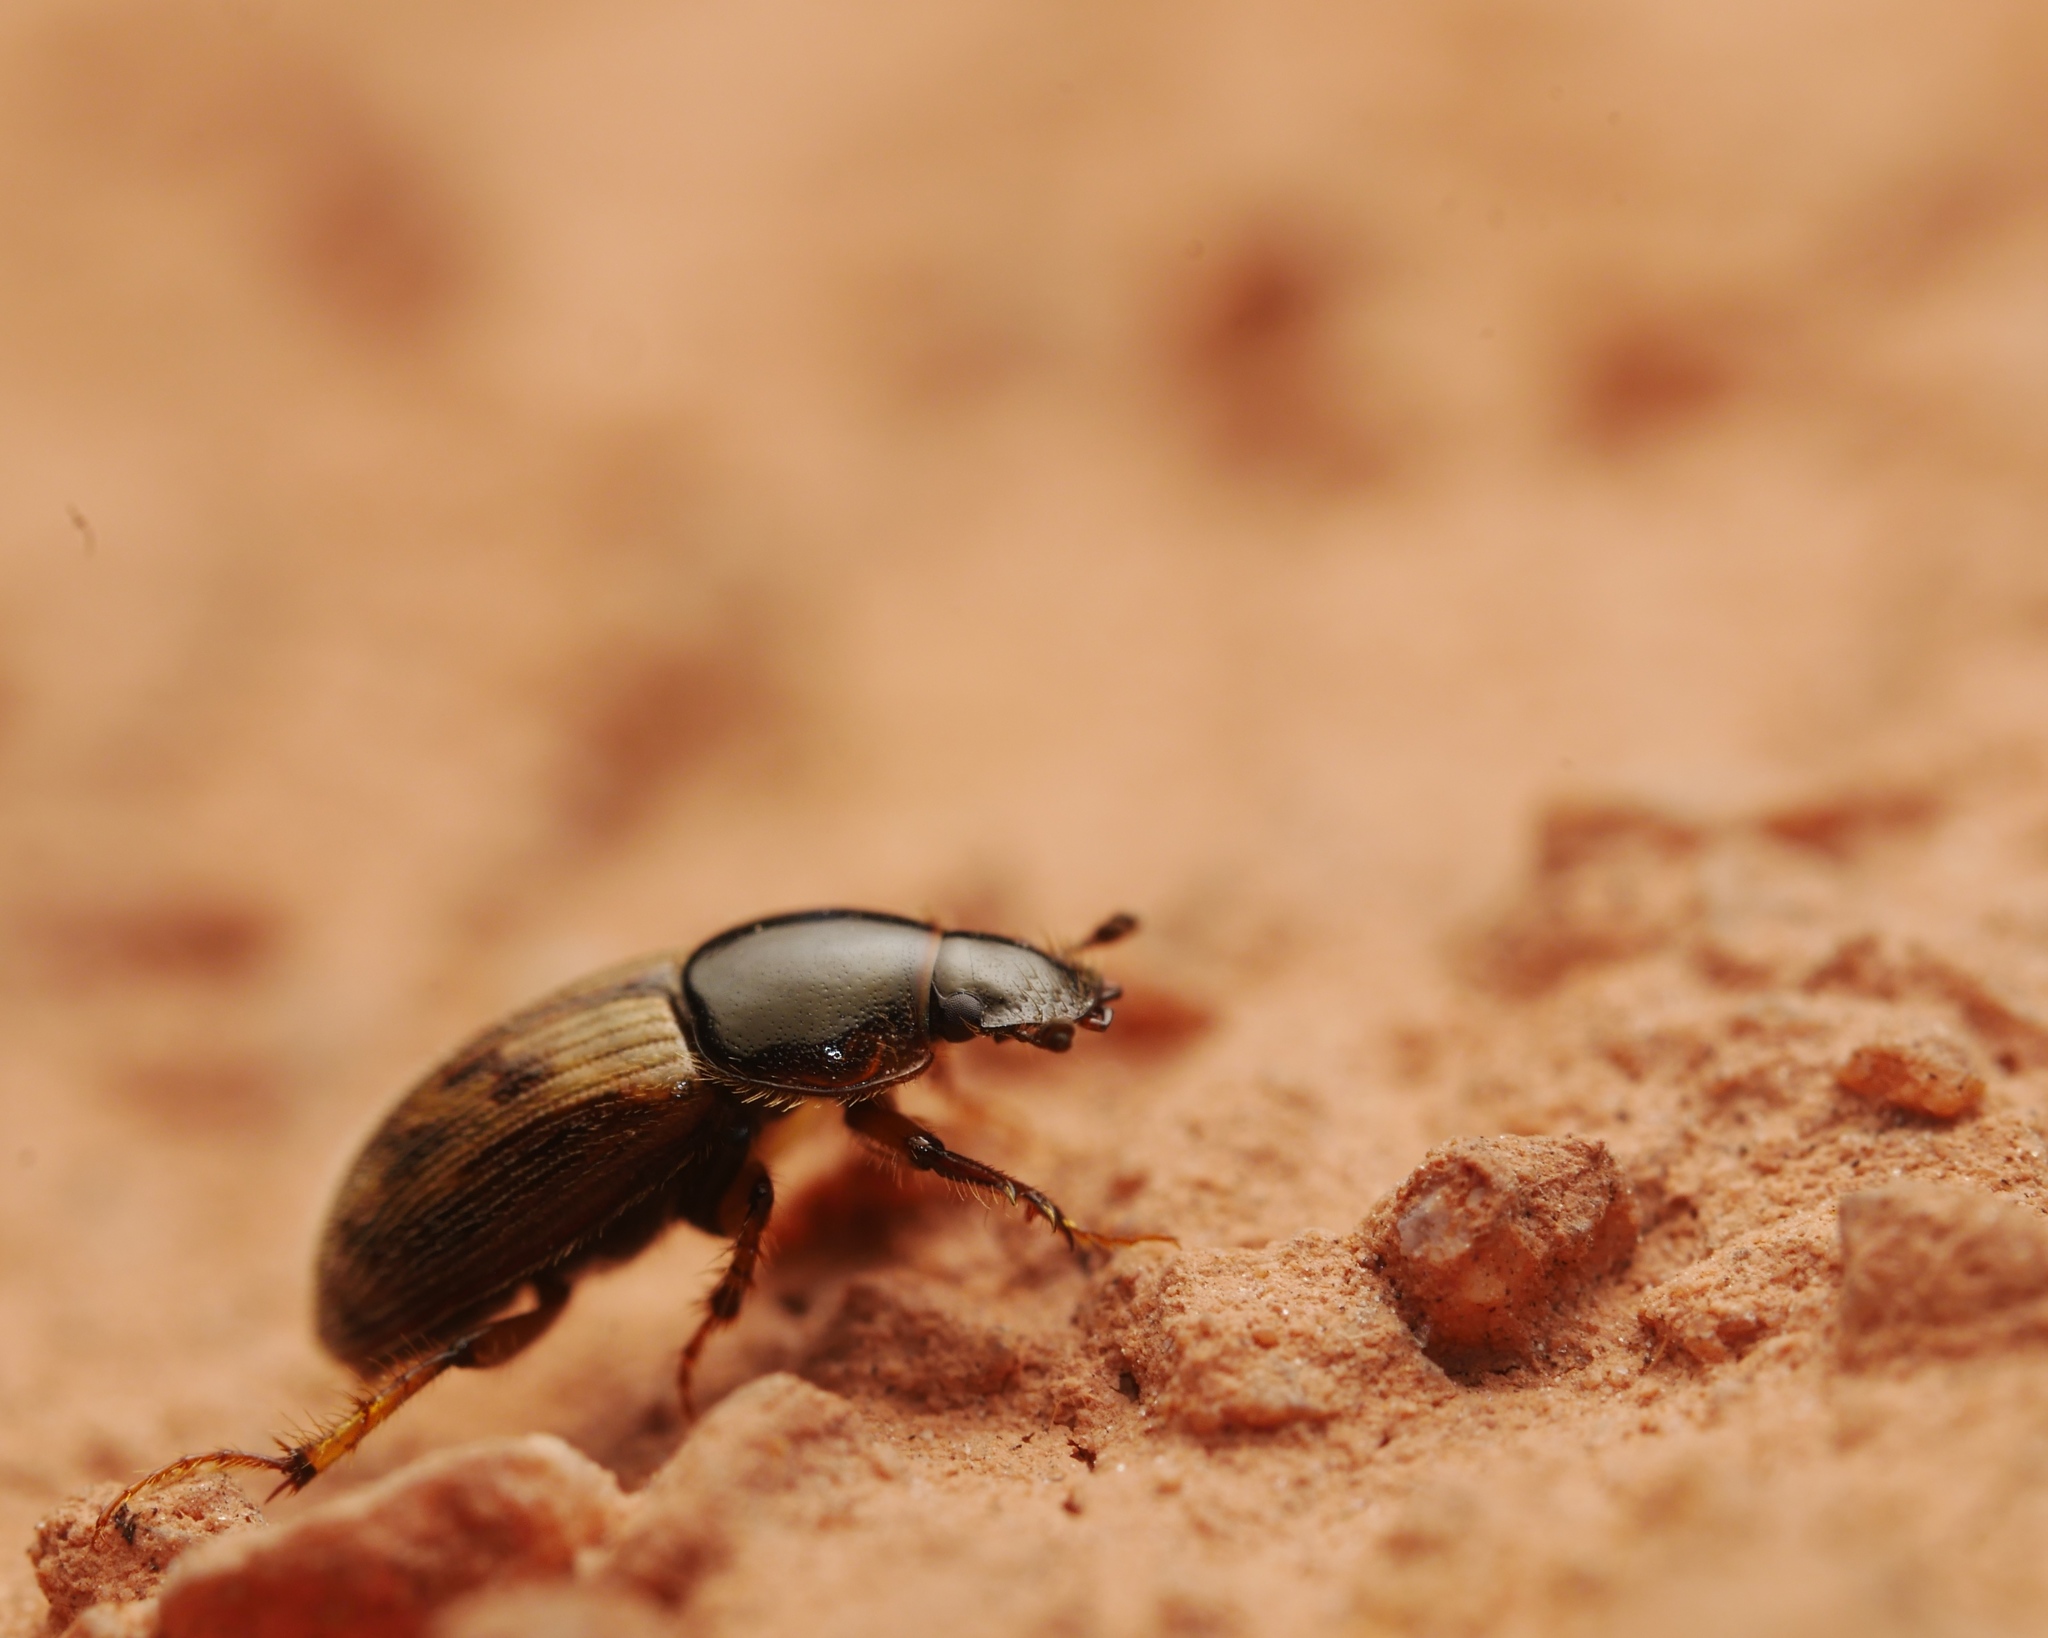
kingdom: Animalia
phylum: Arthropoda
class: Insecta
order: Coleoptera
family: Scarabaeidae
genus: Nimbus
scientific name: Nimbus contaminatus
